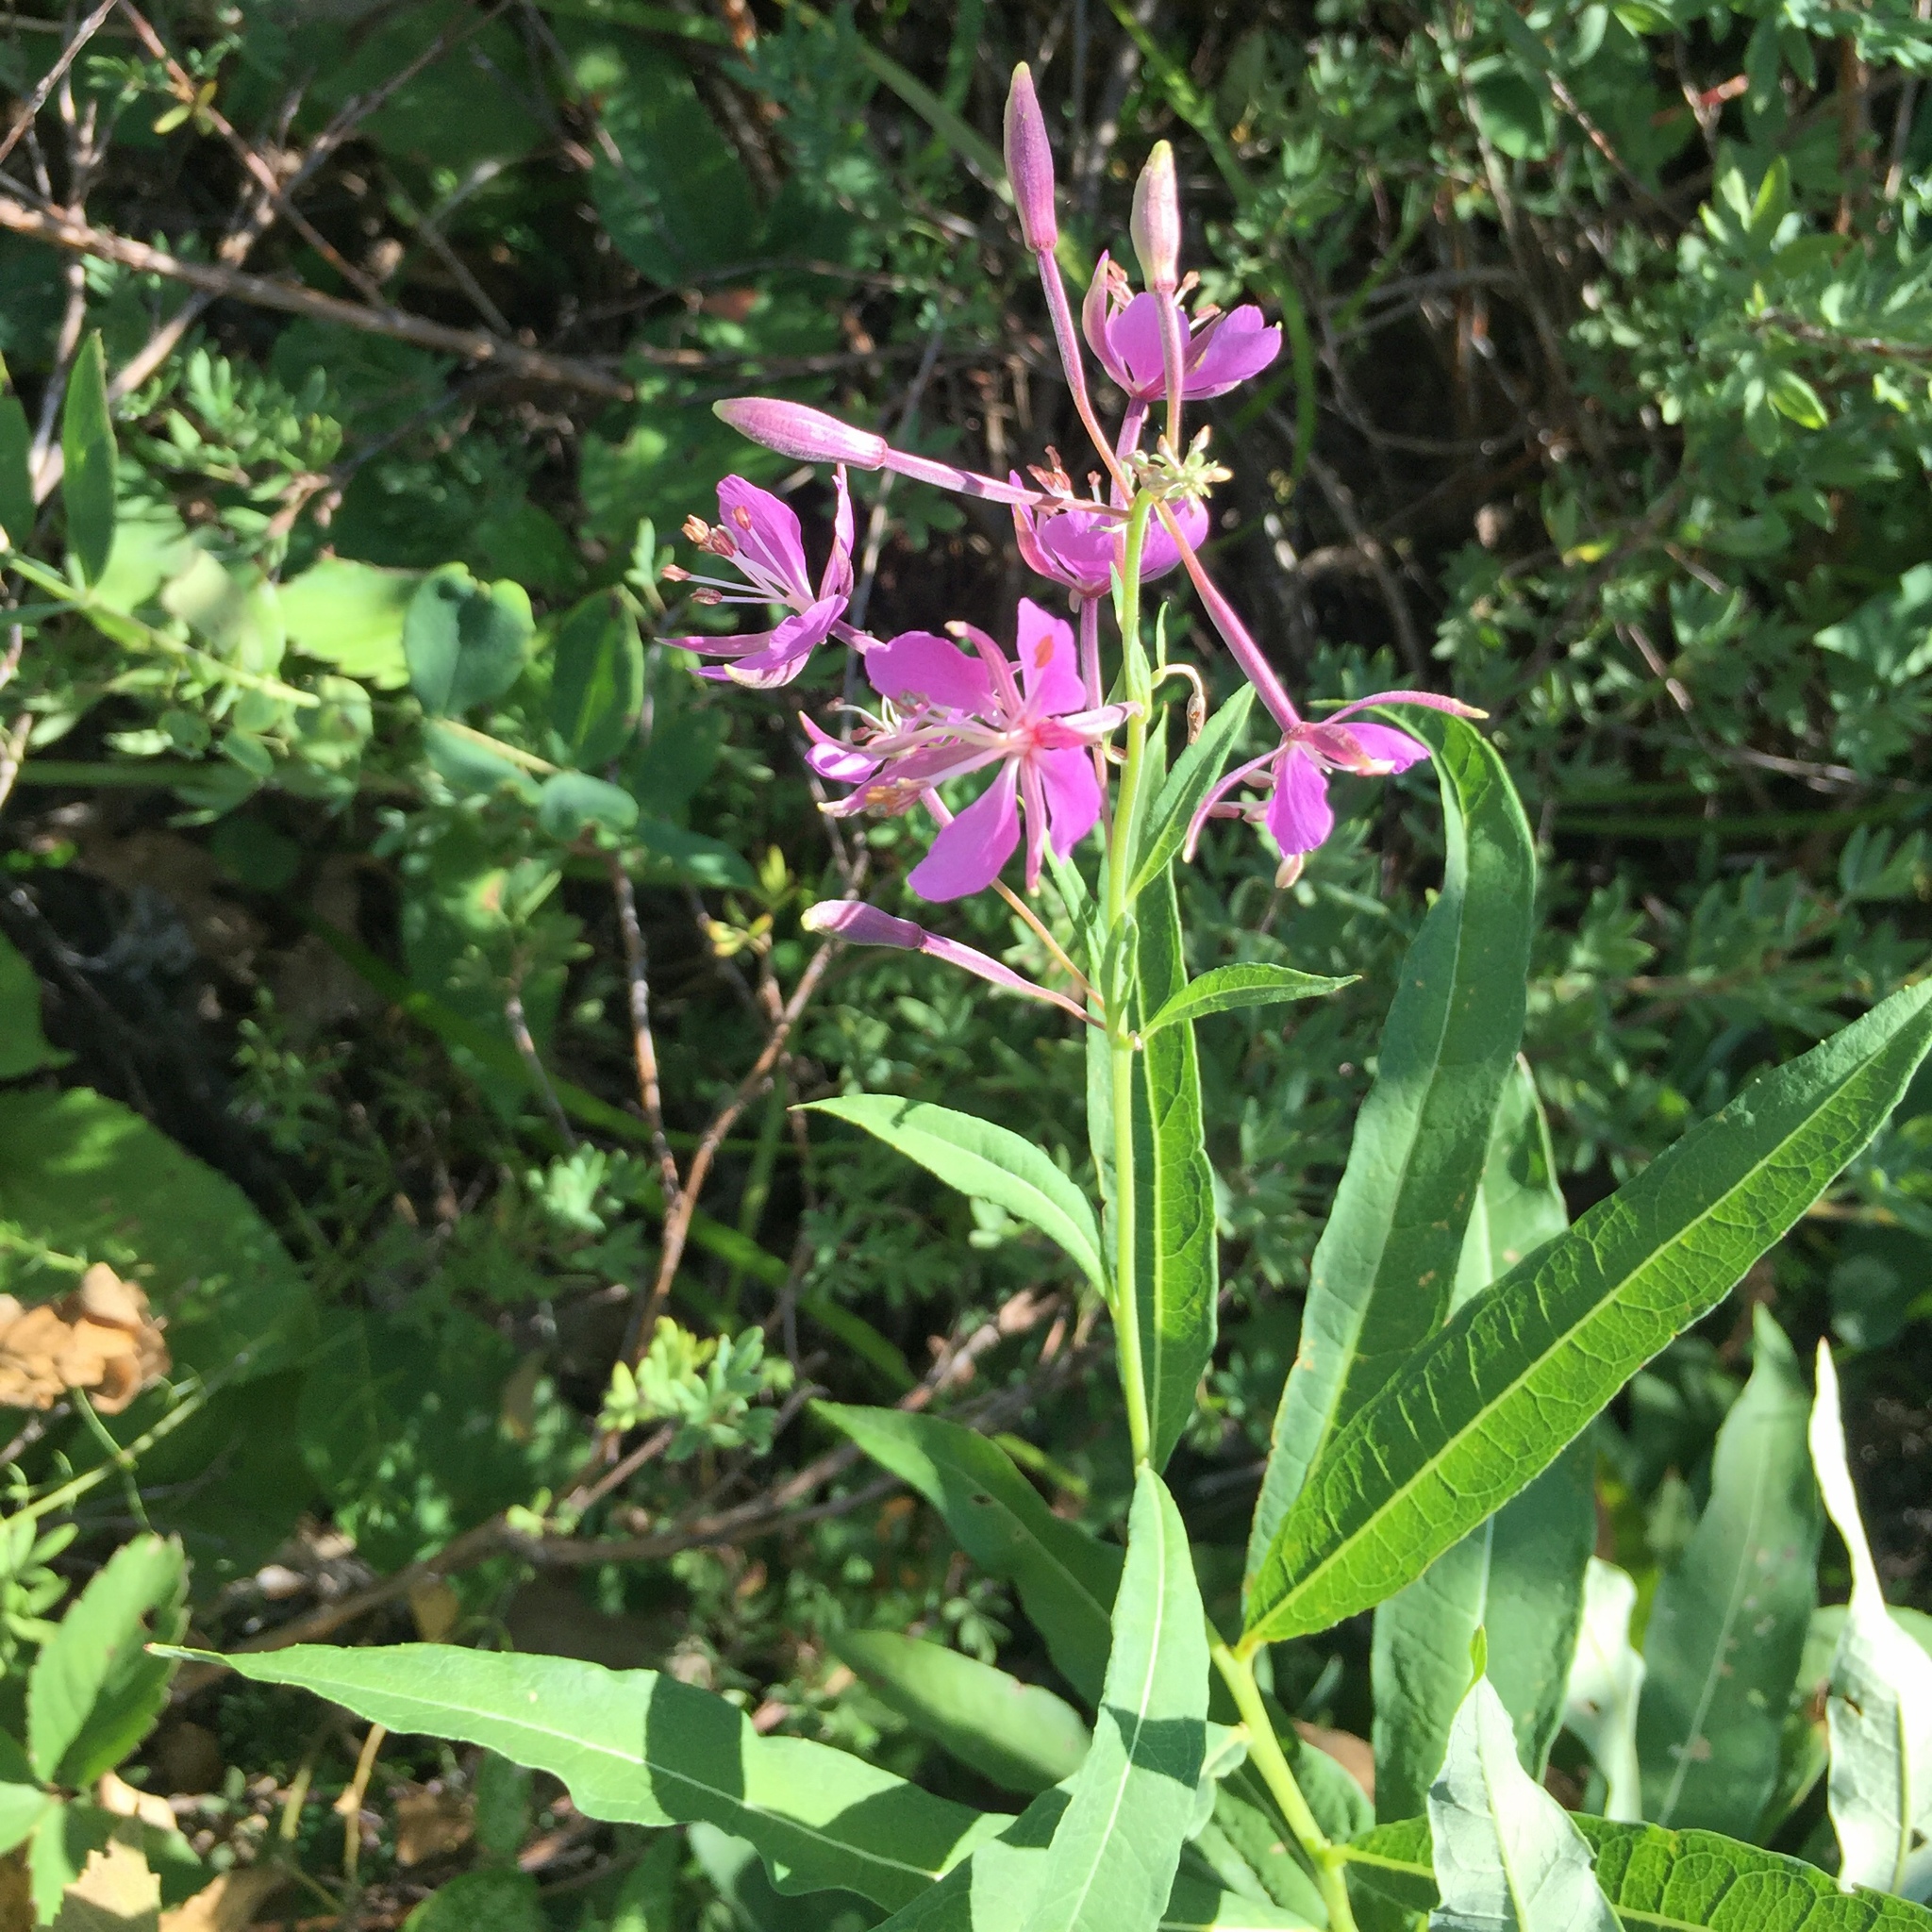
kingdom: Plantae
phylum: Tracheophyta
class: Magnoliopsida
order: Myrtales
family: Onagraceae
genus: Chamaenerion
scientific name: Chamaenerion angustifolium
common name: Fireweed
